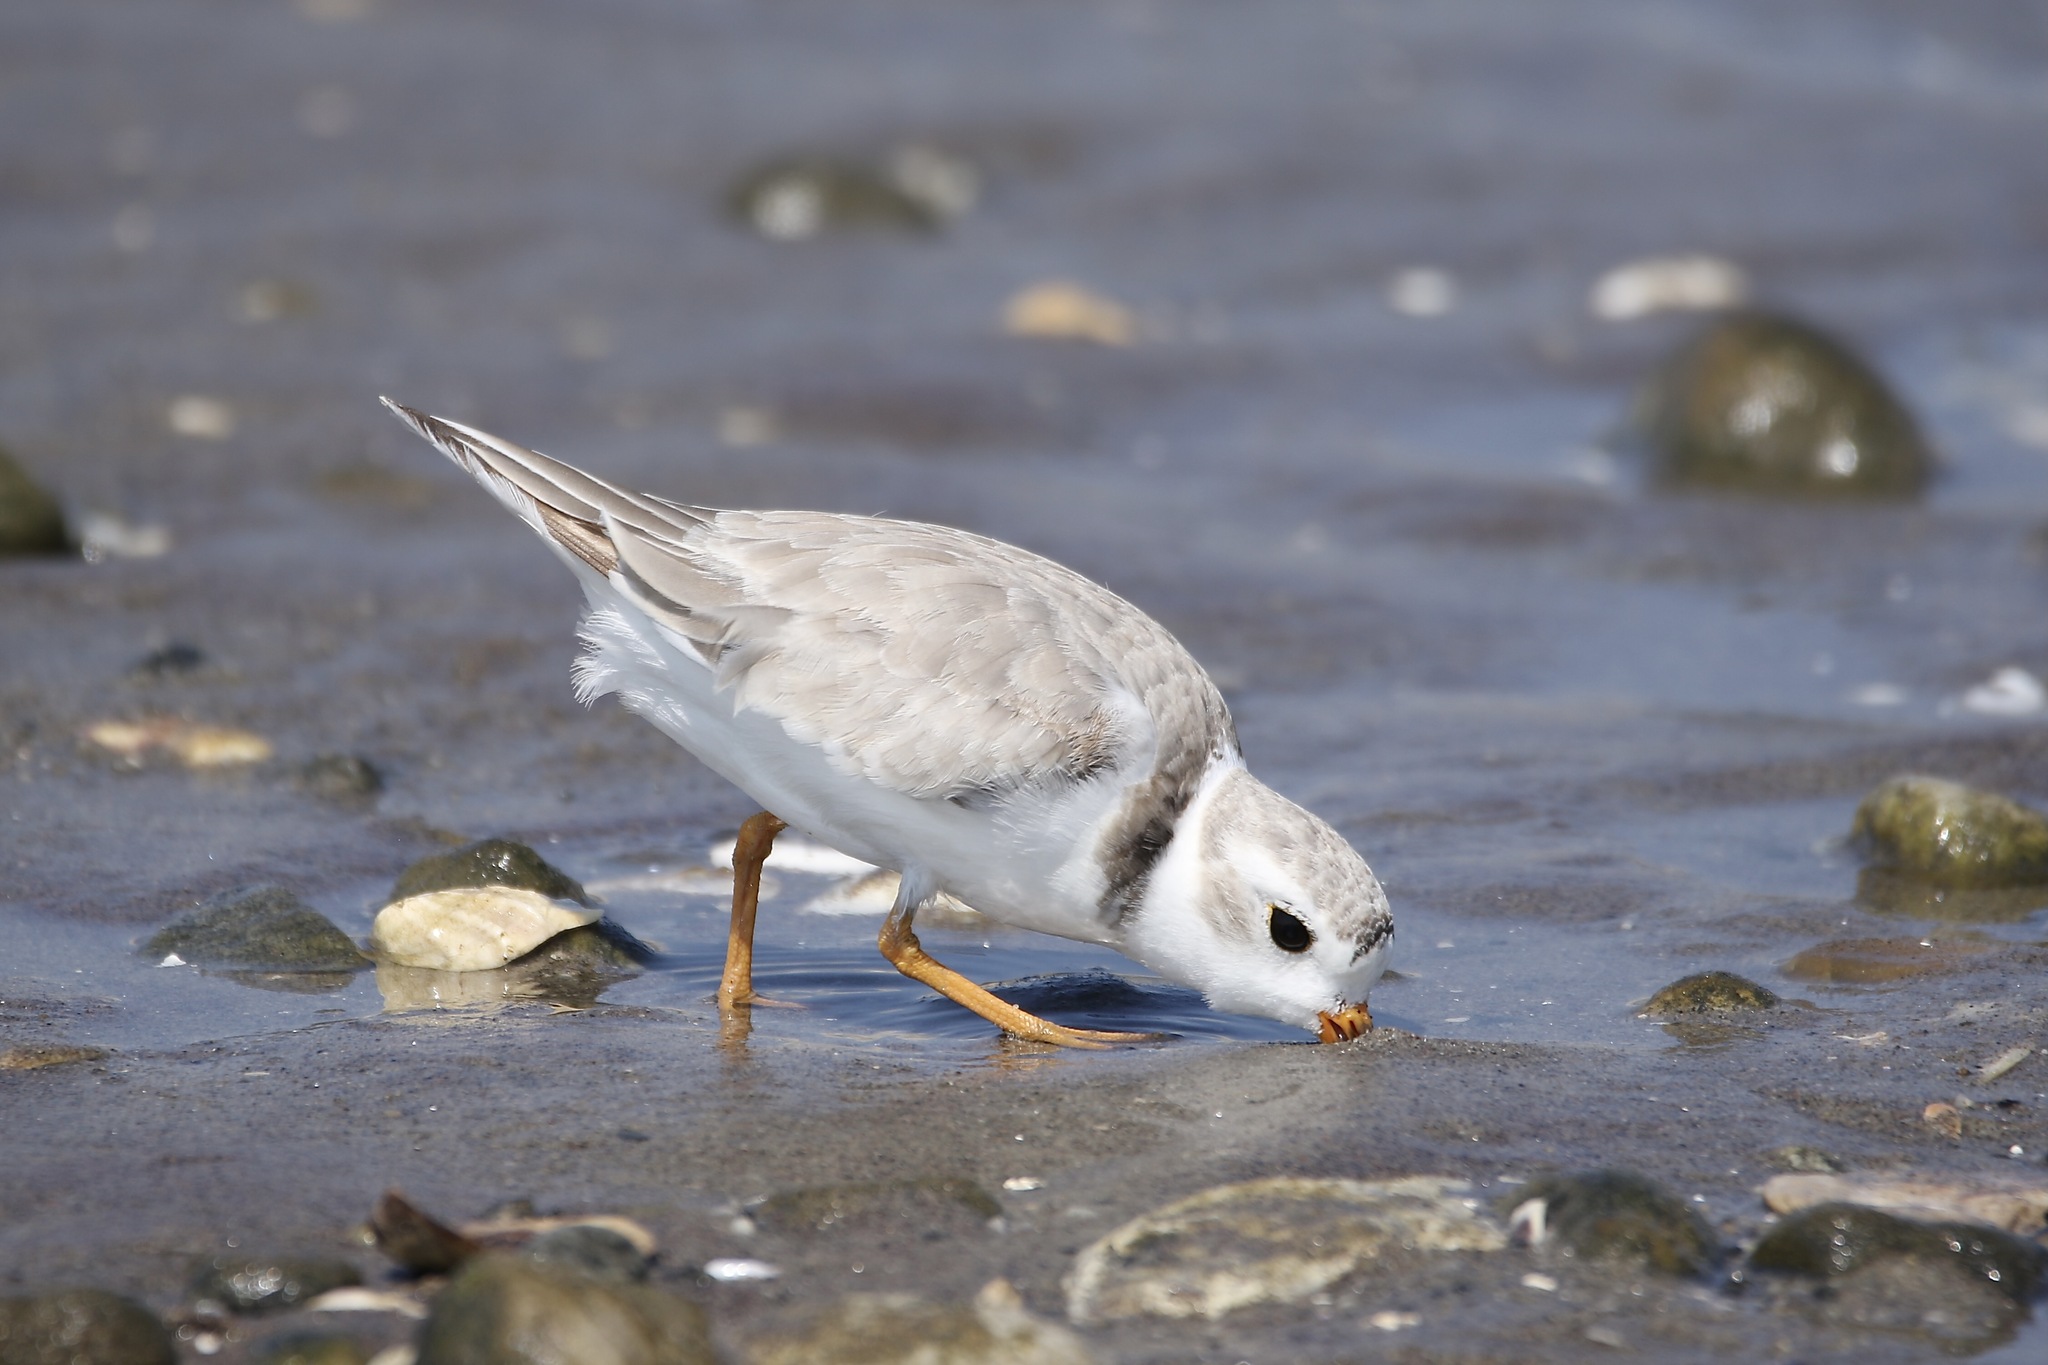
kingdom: Animalia
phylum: Chordata
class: Aves
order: Charadriiformes
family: Charadriidae
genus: Charadrius
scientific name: Charadrius melodus
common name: Piping plover
